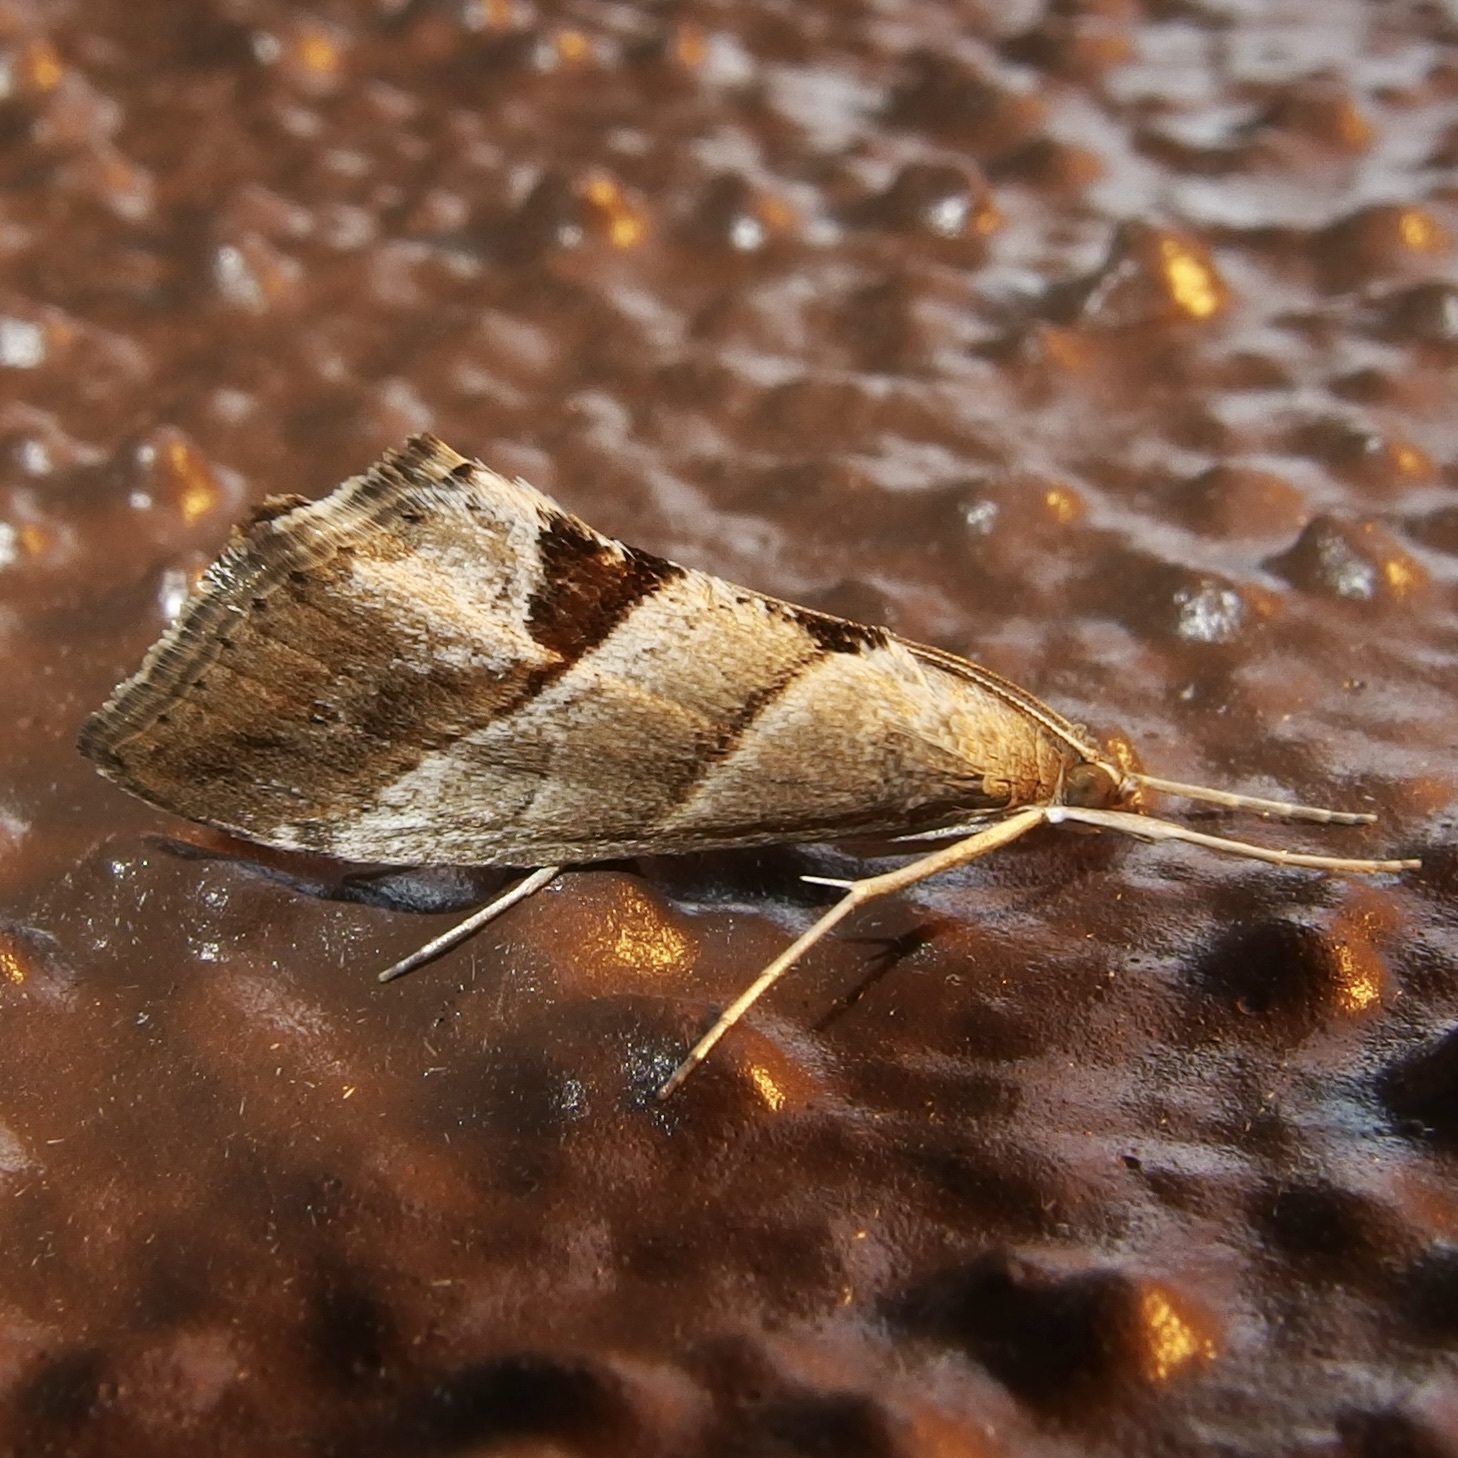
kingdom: Animalia
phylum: Arthropoda
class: Insecta
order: Lepidoptera
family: Crambidae
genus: Evergestis
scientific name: Evergestis triangulalis
